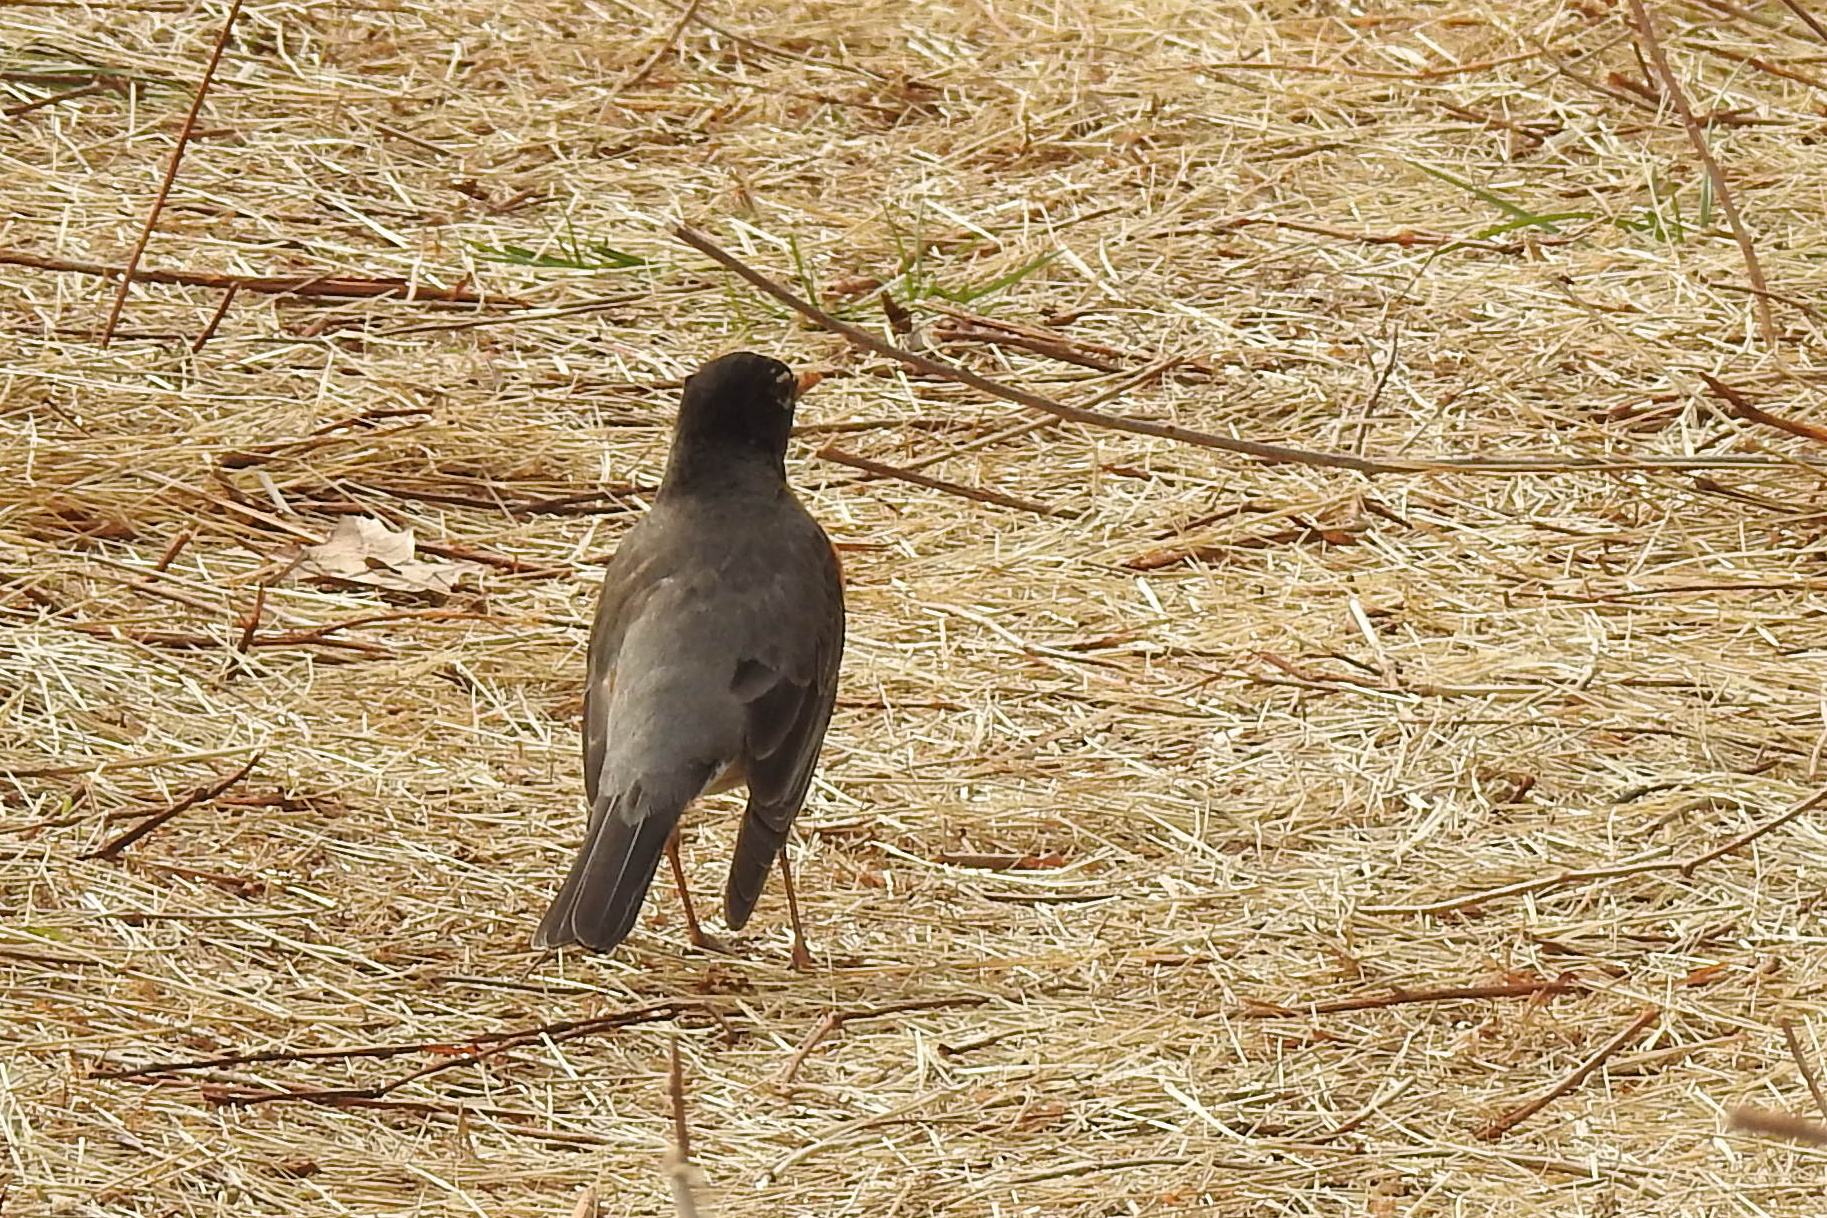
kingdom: Animalia
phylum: Chordata
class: Aves
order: Passeriformes
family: Turdidae
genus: Turdus
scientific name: Turdus migratorius
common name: American robin
